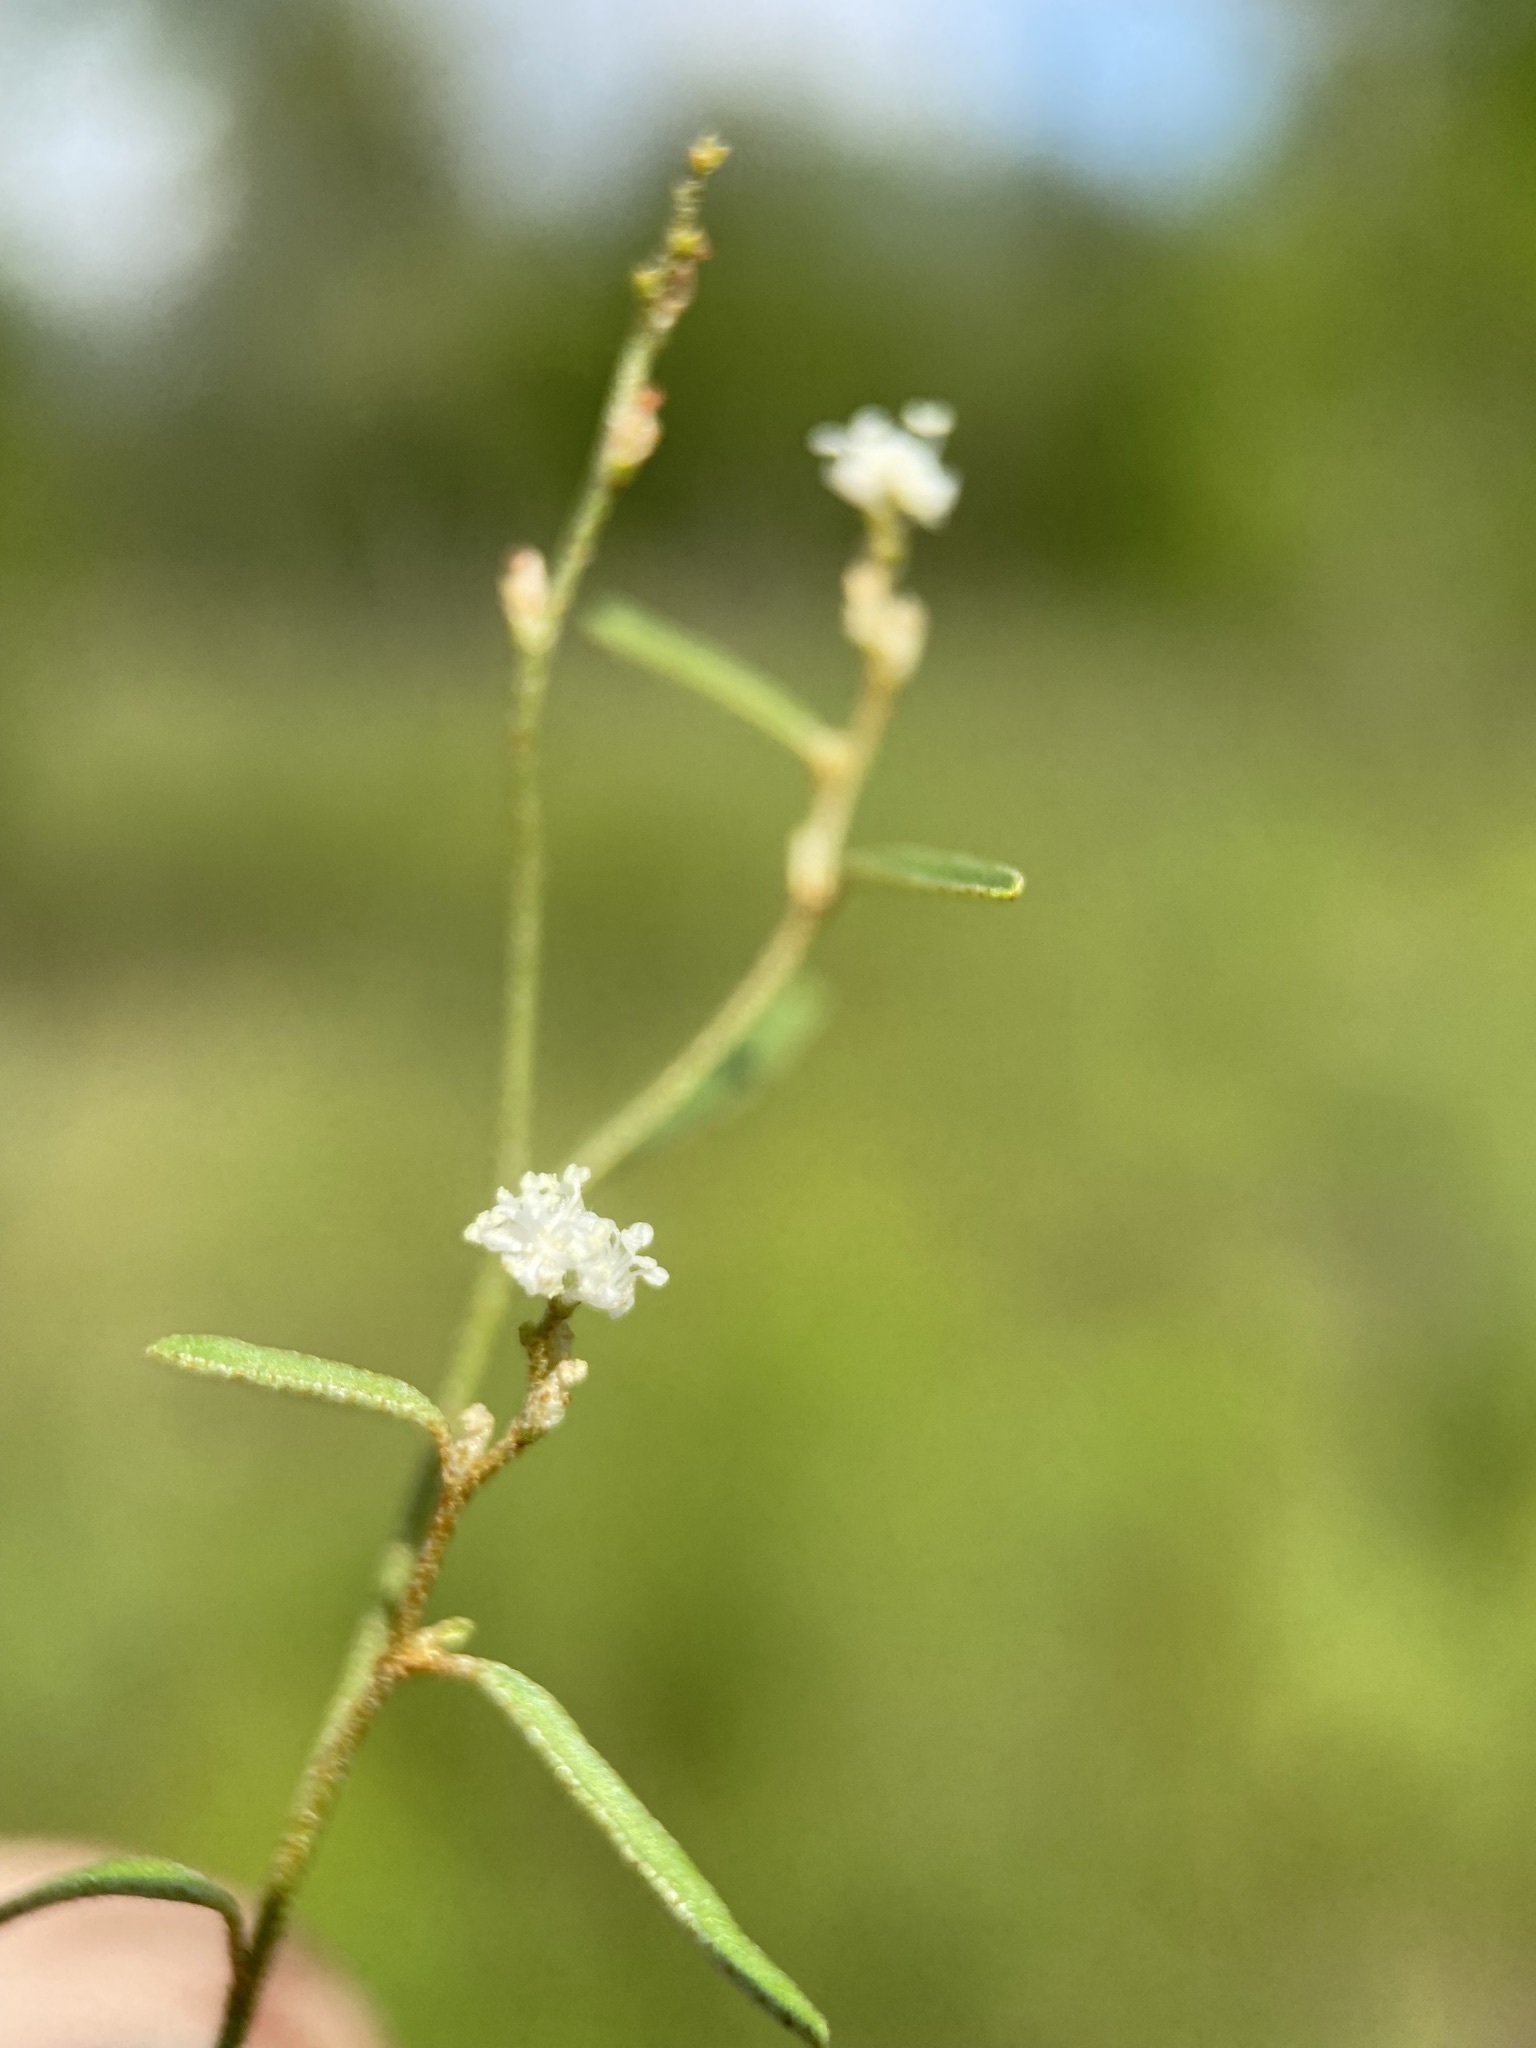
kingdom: Plantae
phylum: Tracheophyta
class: Magnoliopsida
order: Malpighiales
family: Euphorbiaceae
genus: Croton
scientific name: Croton michauxii
